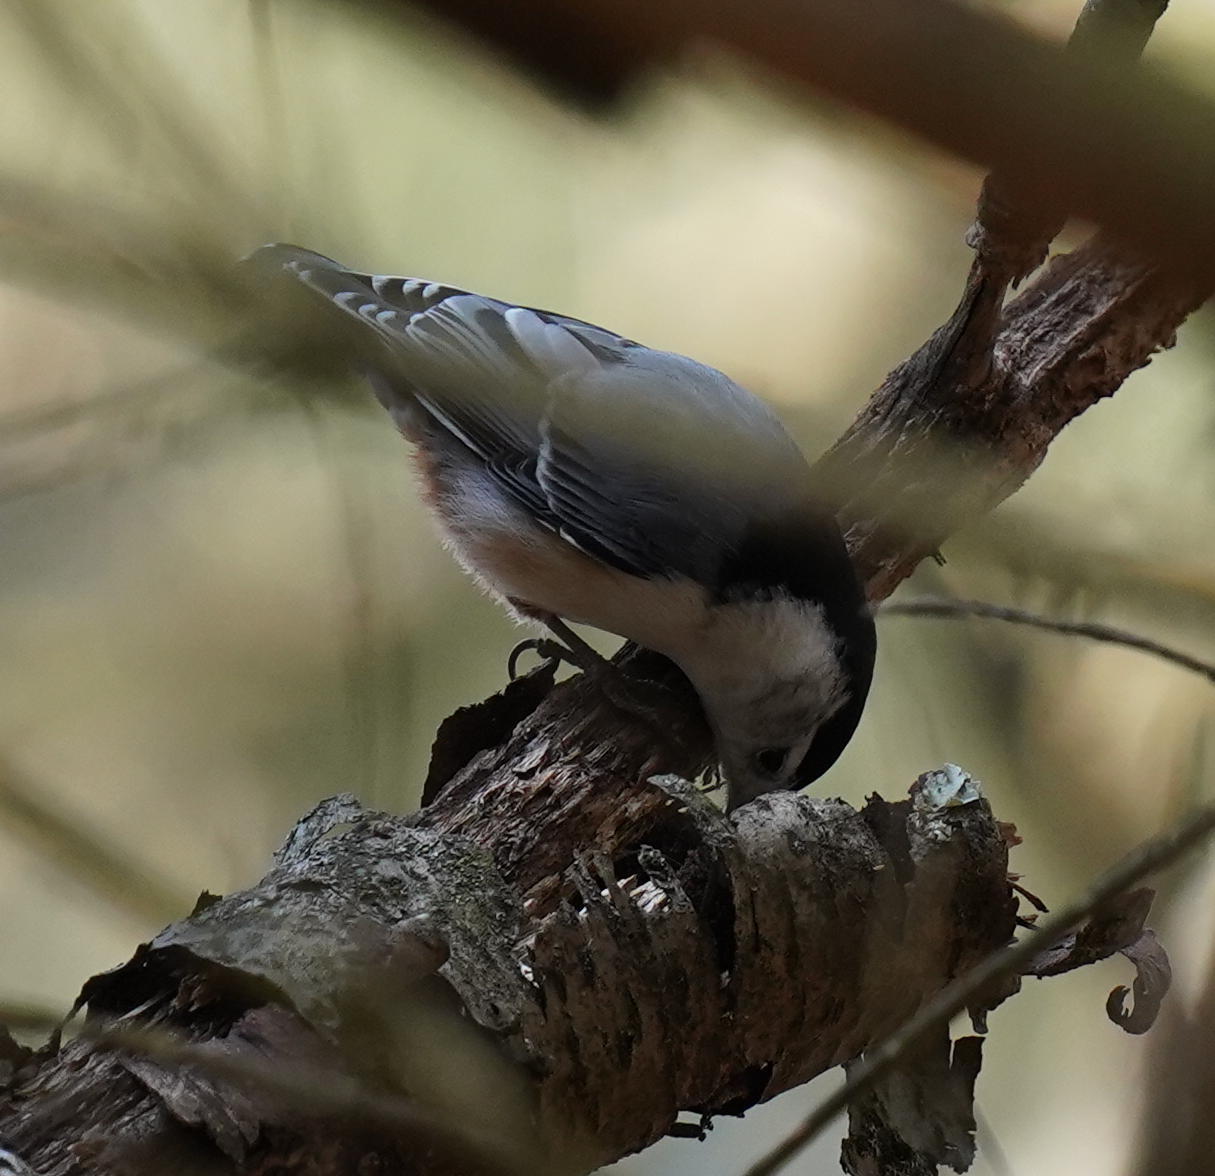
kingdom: Animalia
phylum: Chordata
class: Aves
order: Passeriformes
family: Sittidae
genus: Sitta
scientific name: Sitta carolinensis
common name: White-breasted nuthatch
